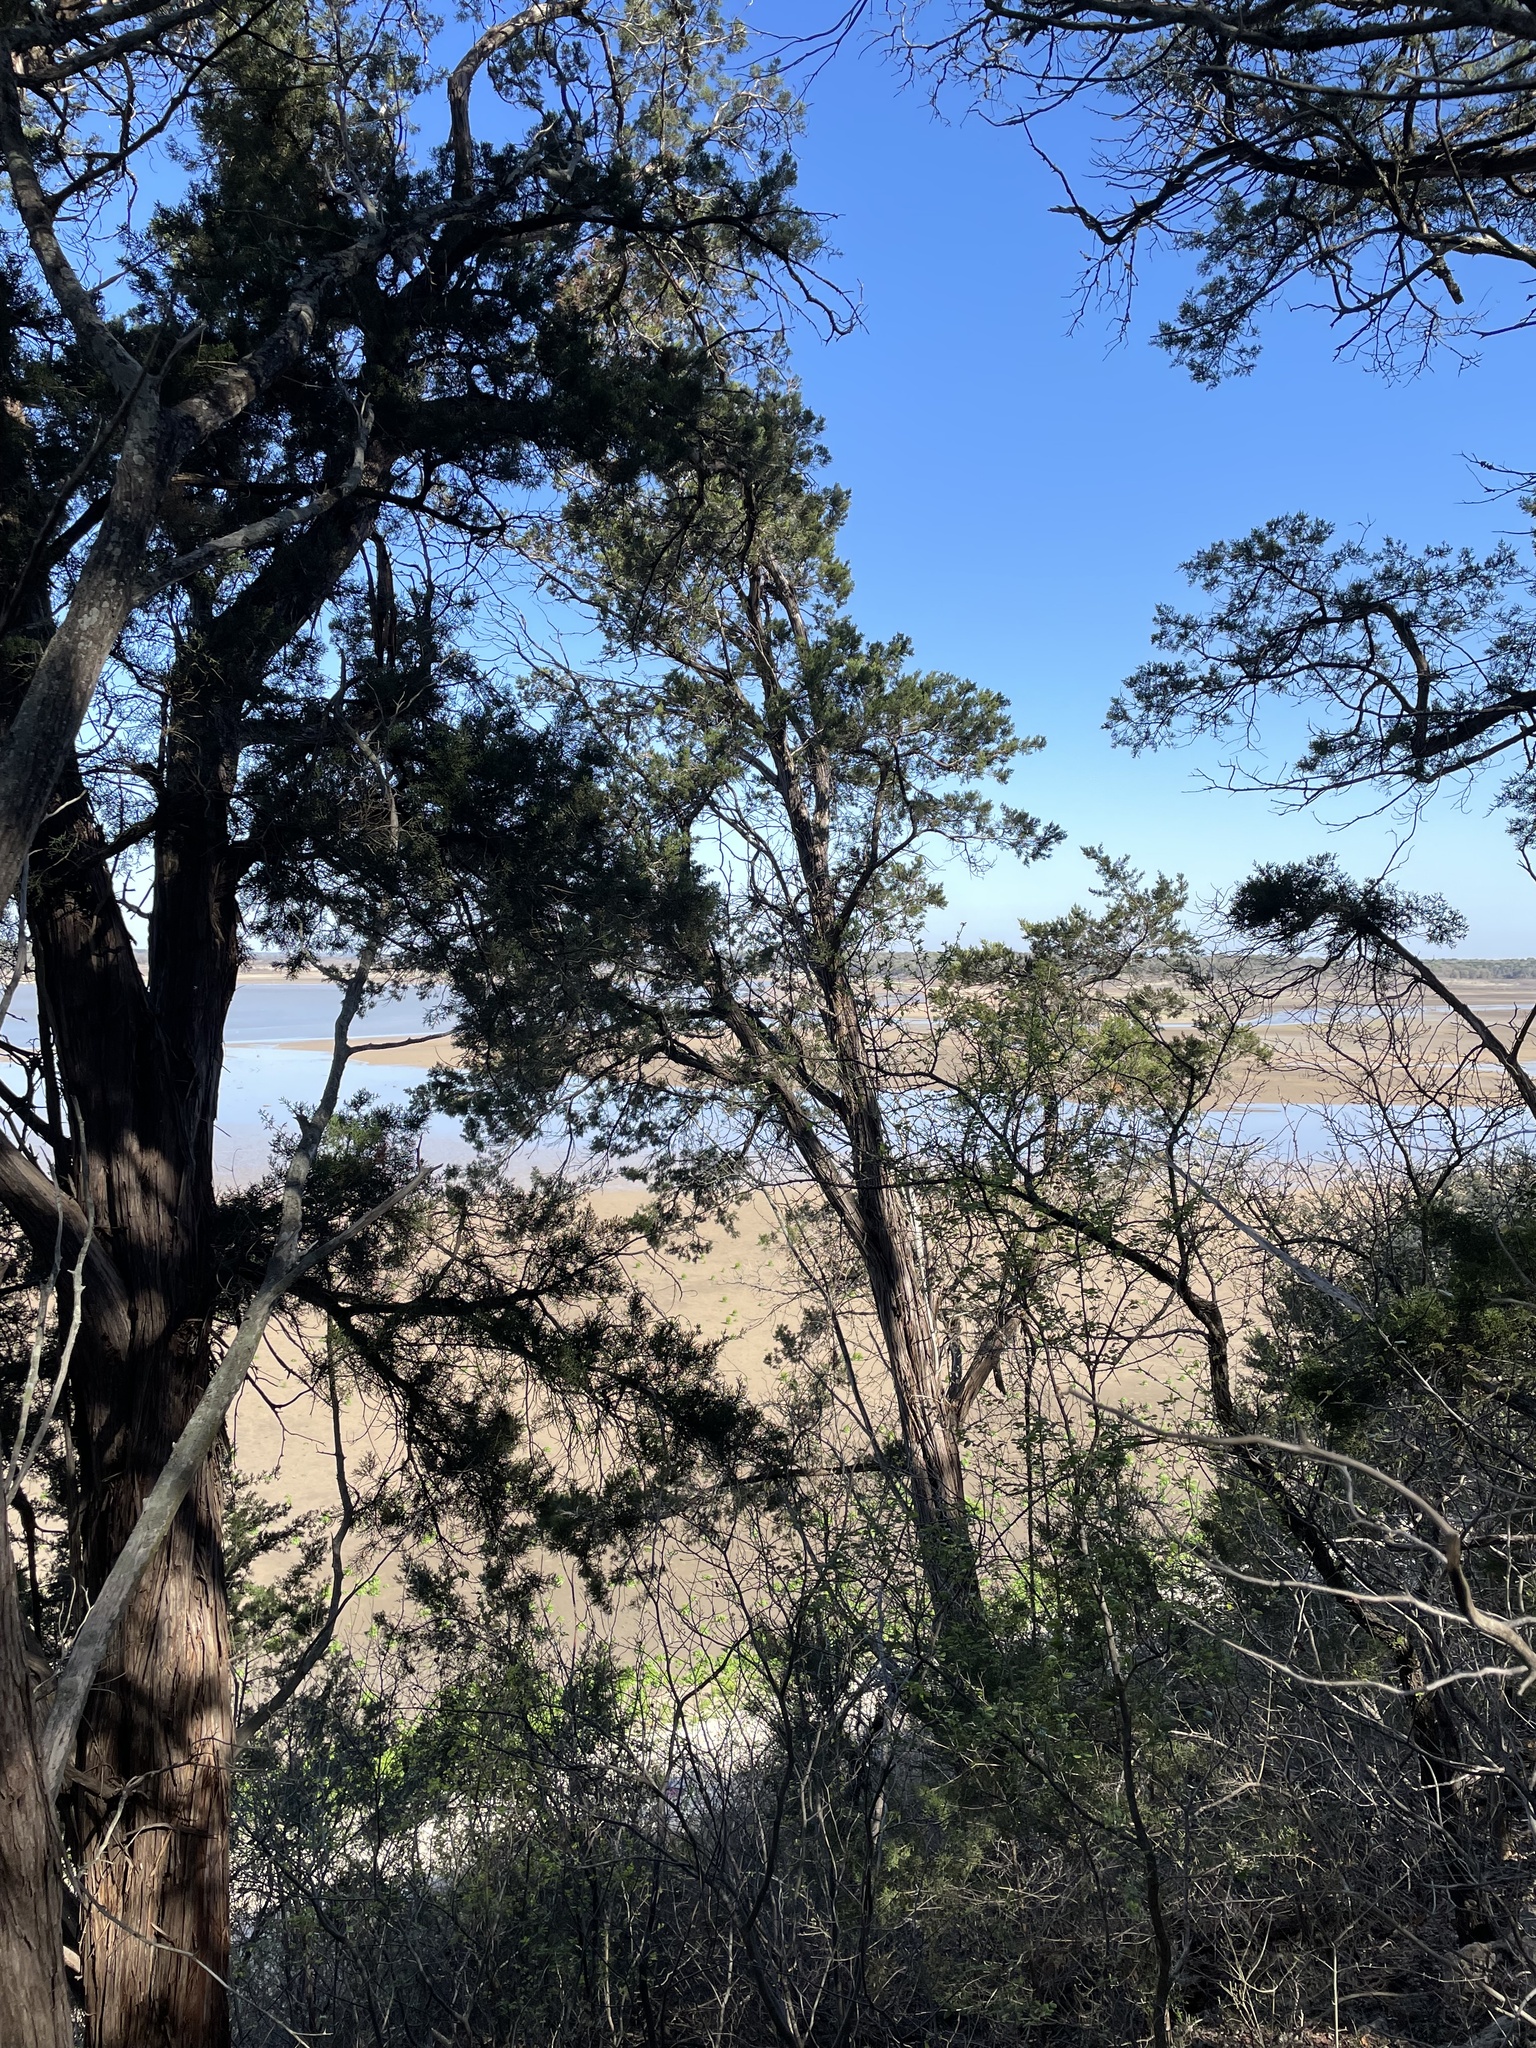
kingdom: Plantae
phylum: Tracheophyta
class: Pinopsida
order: Pinales
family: Cupressaceae
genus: Juniperus
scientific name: Juniperus ashei
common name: Mexican juniper
